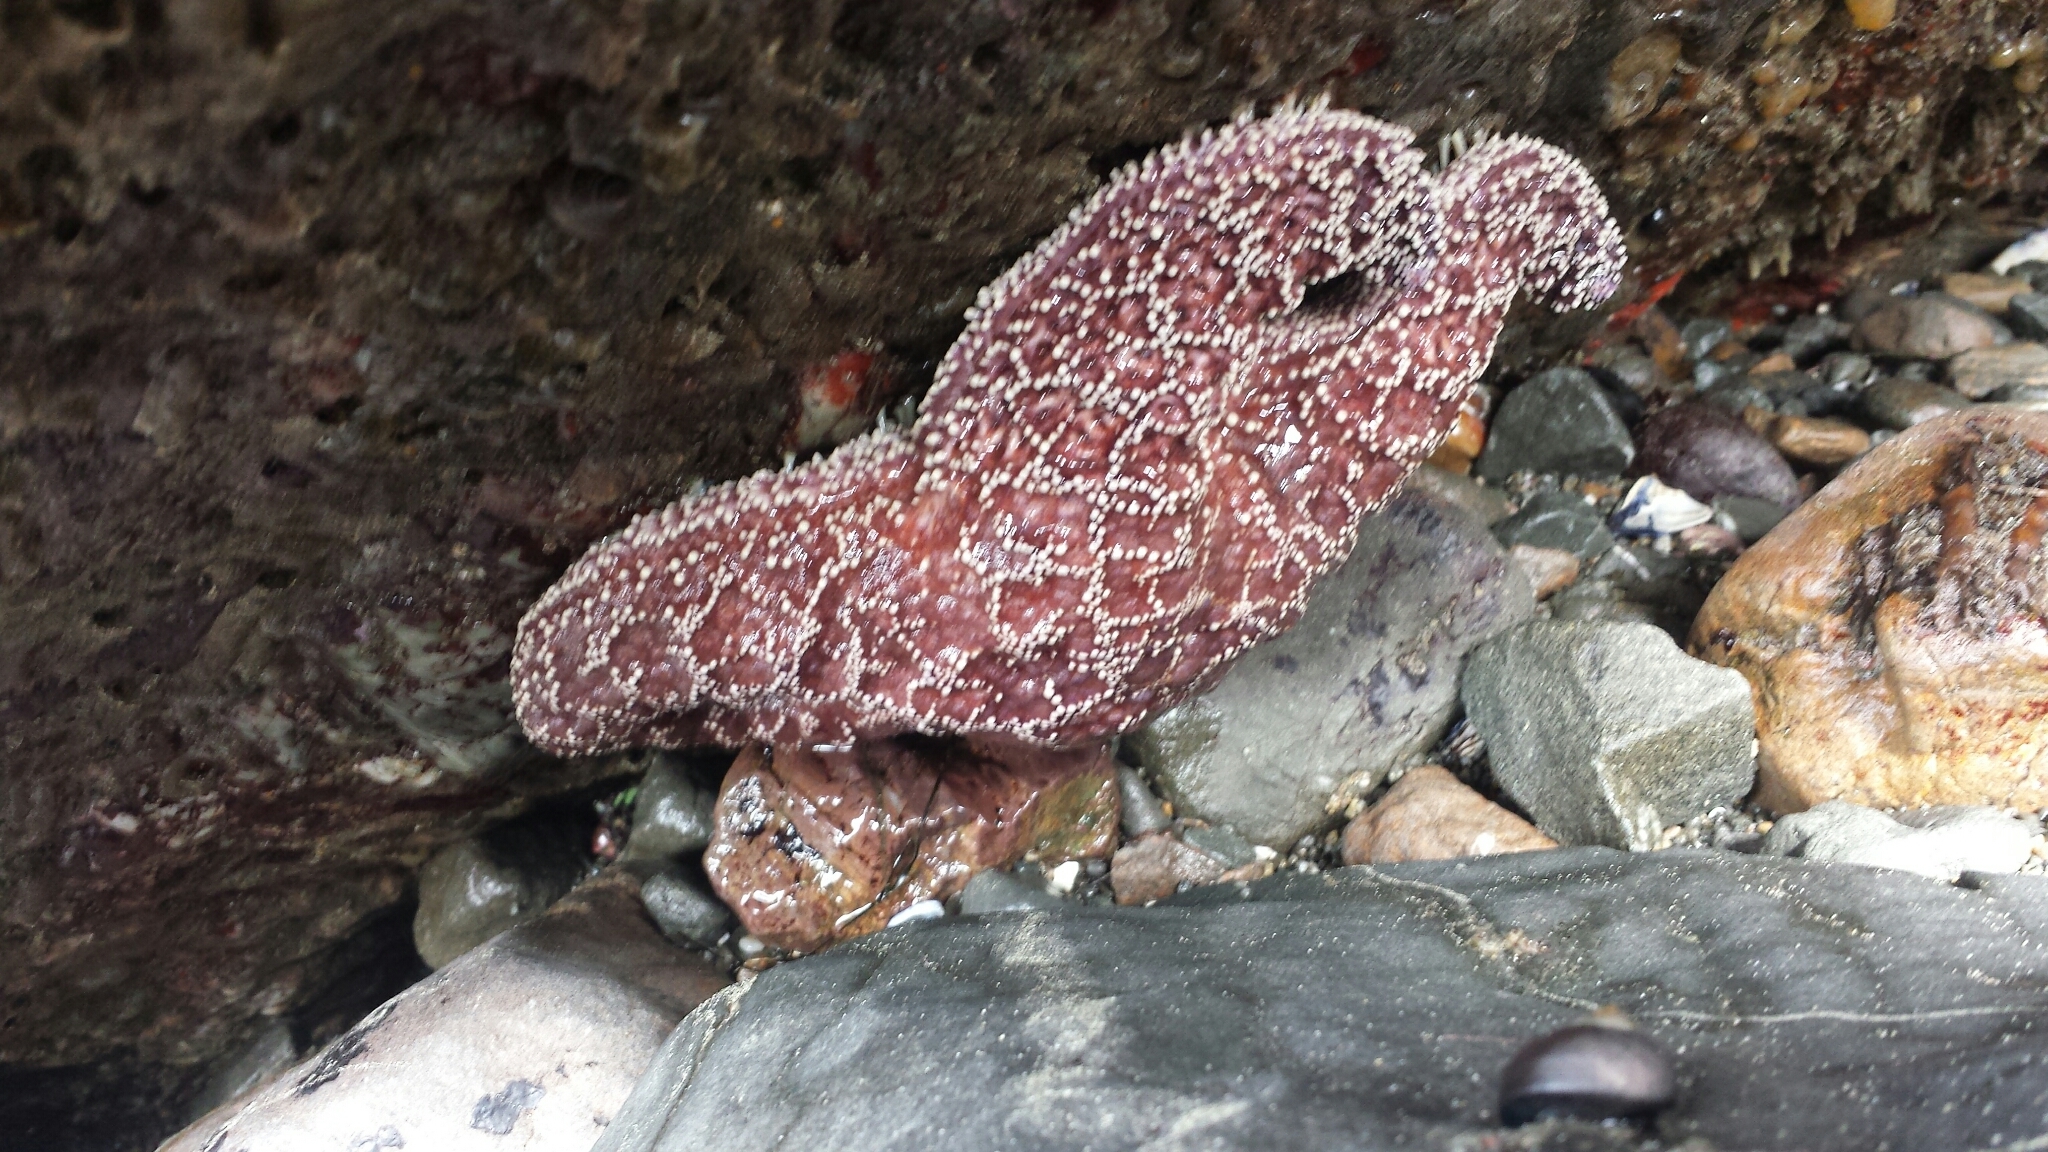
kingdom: Animalia
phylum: Echinodermata
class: Asteroidea
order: Forcipulatida
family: Asteriidae
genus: Pisaster
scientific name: Pisaster ochraceus
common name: Ochre stars
